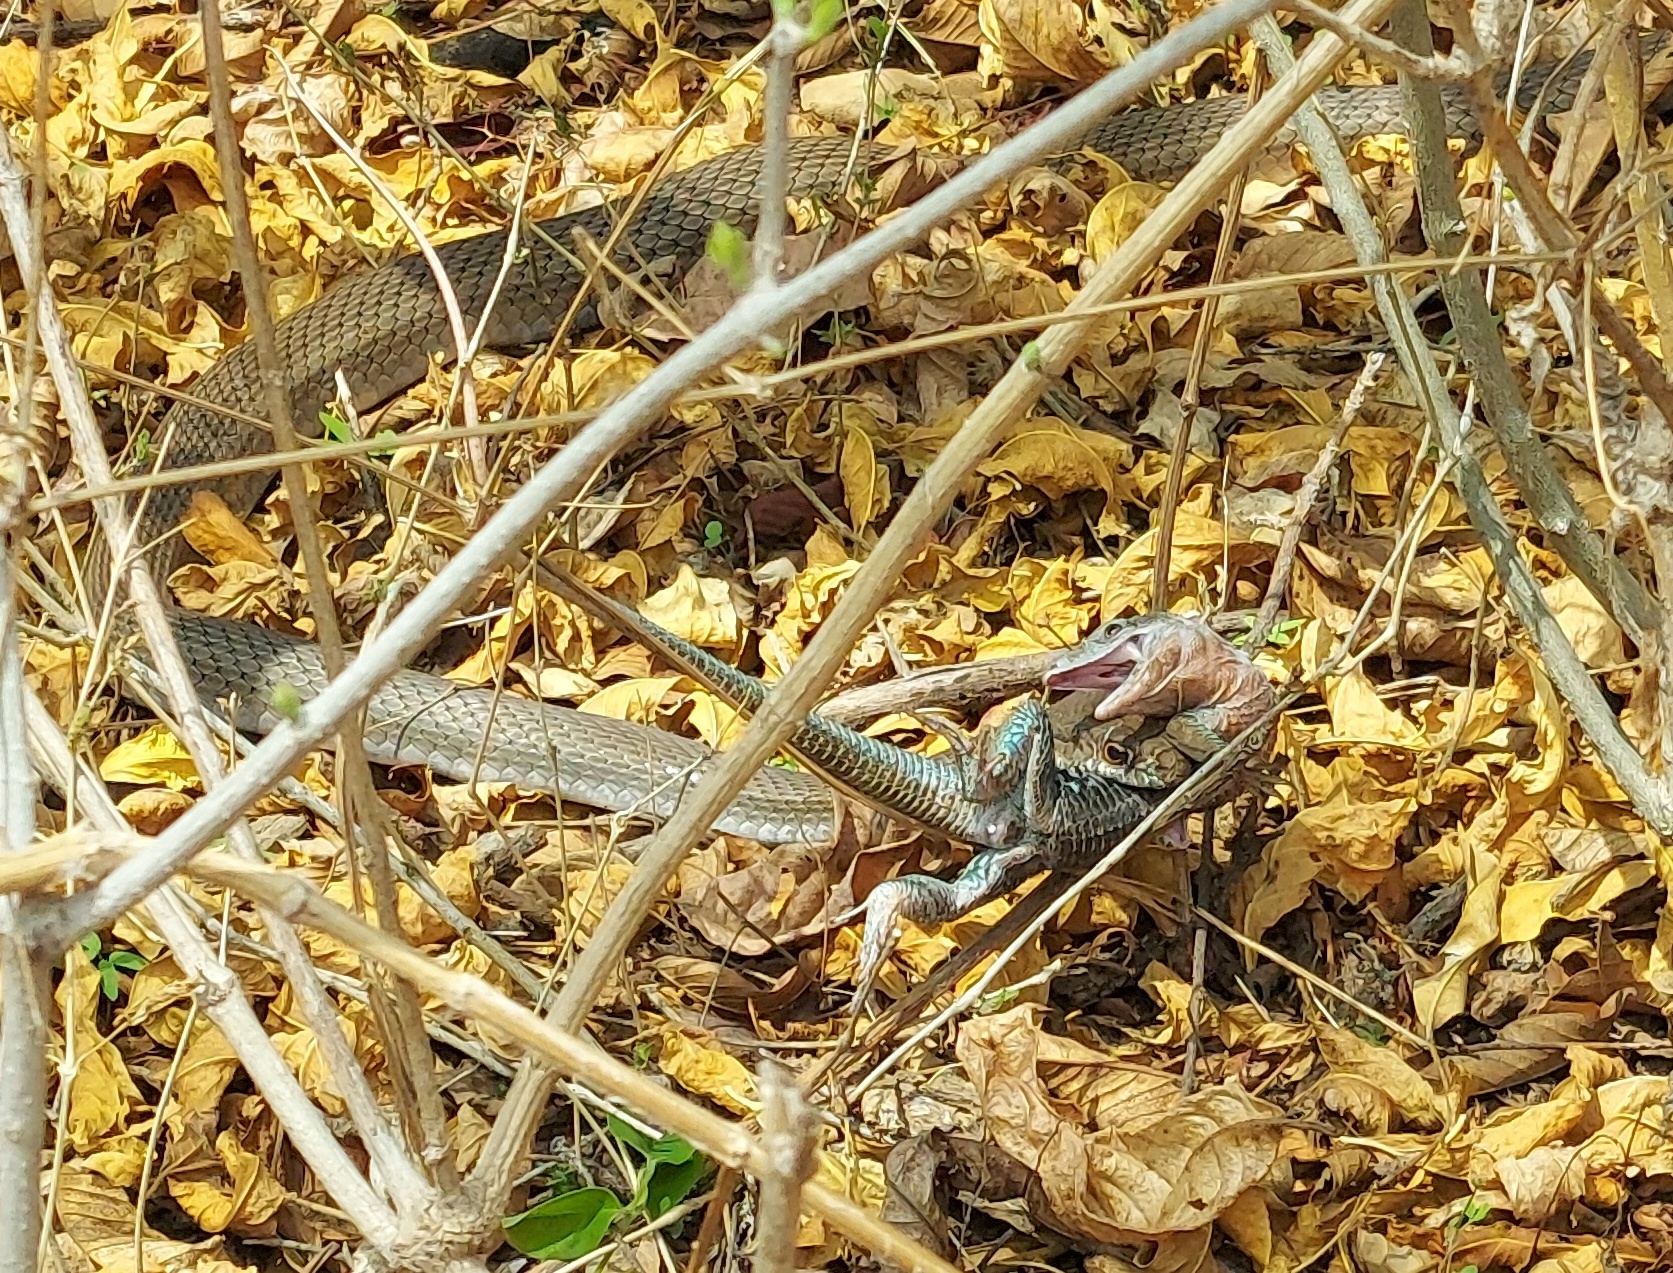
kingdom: Animalia
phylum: Chordata
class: Squamata
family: Colubridae
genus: Masticophis
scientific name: Masticophis mentovarius
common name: Neotropical whip snake
